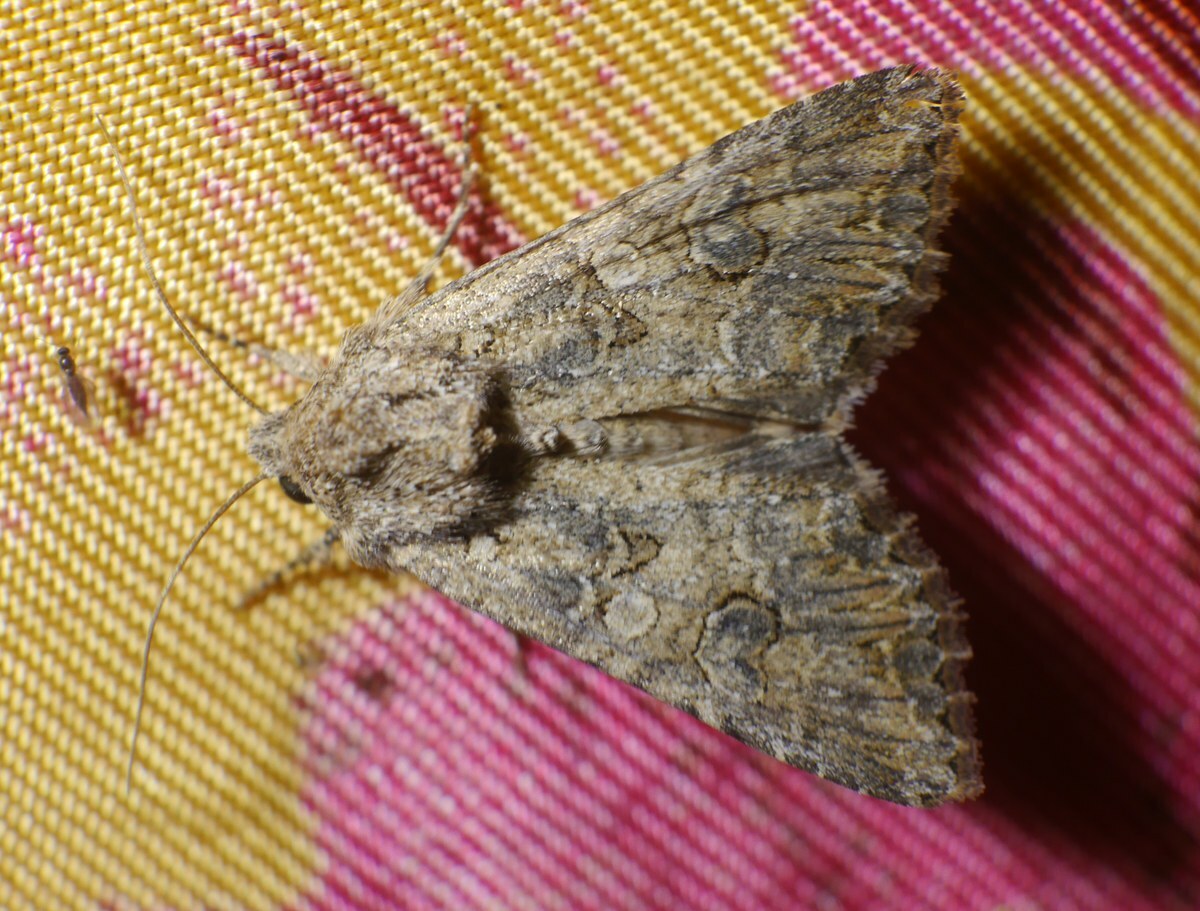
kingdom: Animalia
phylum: Arthropoda
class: Insecta
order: Lepidoptera
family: Noctuidae
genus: Anarta
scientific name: Anarta trifolii
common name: Clover cutworm moth
